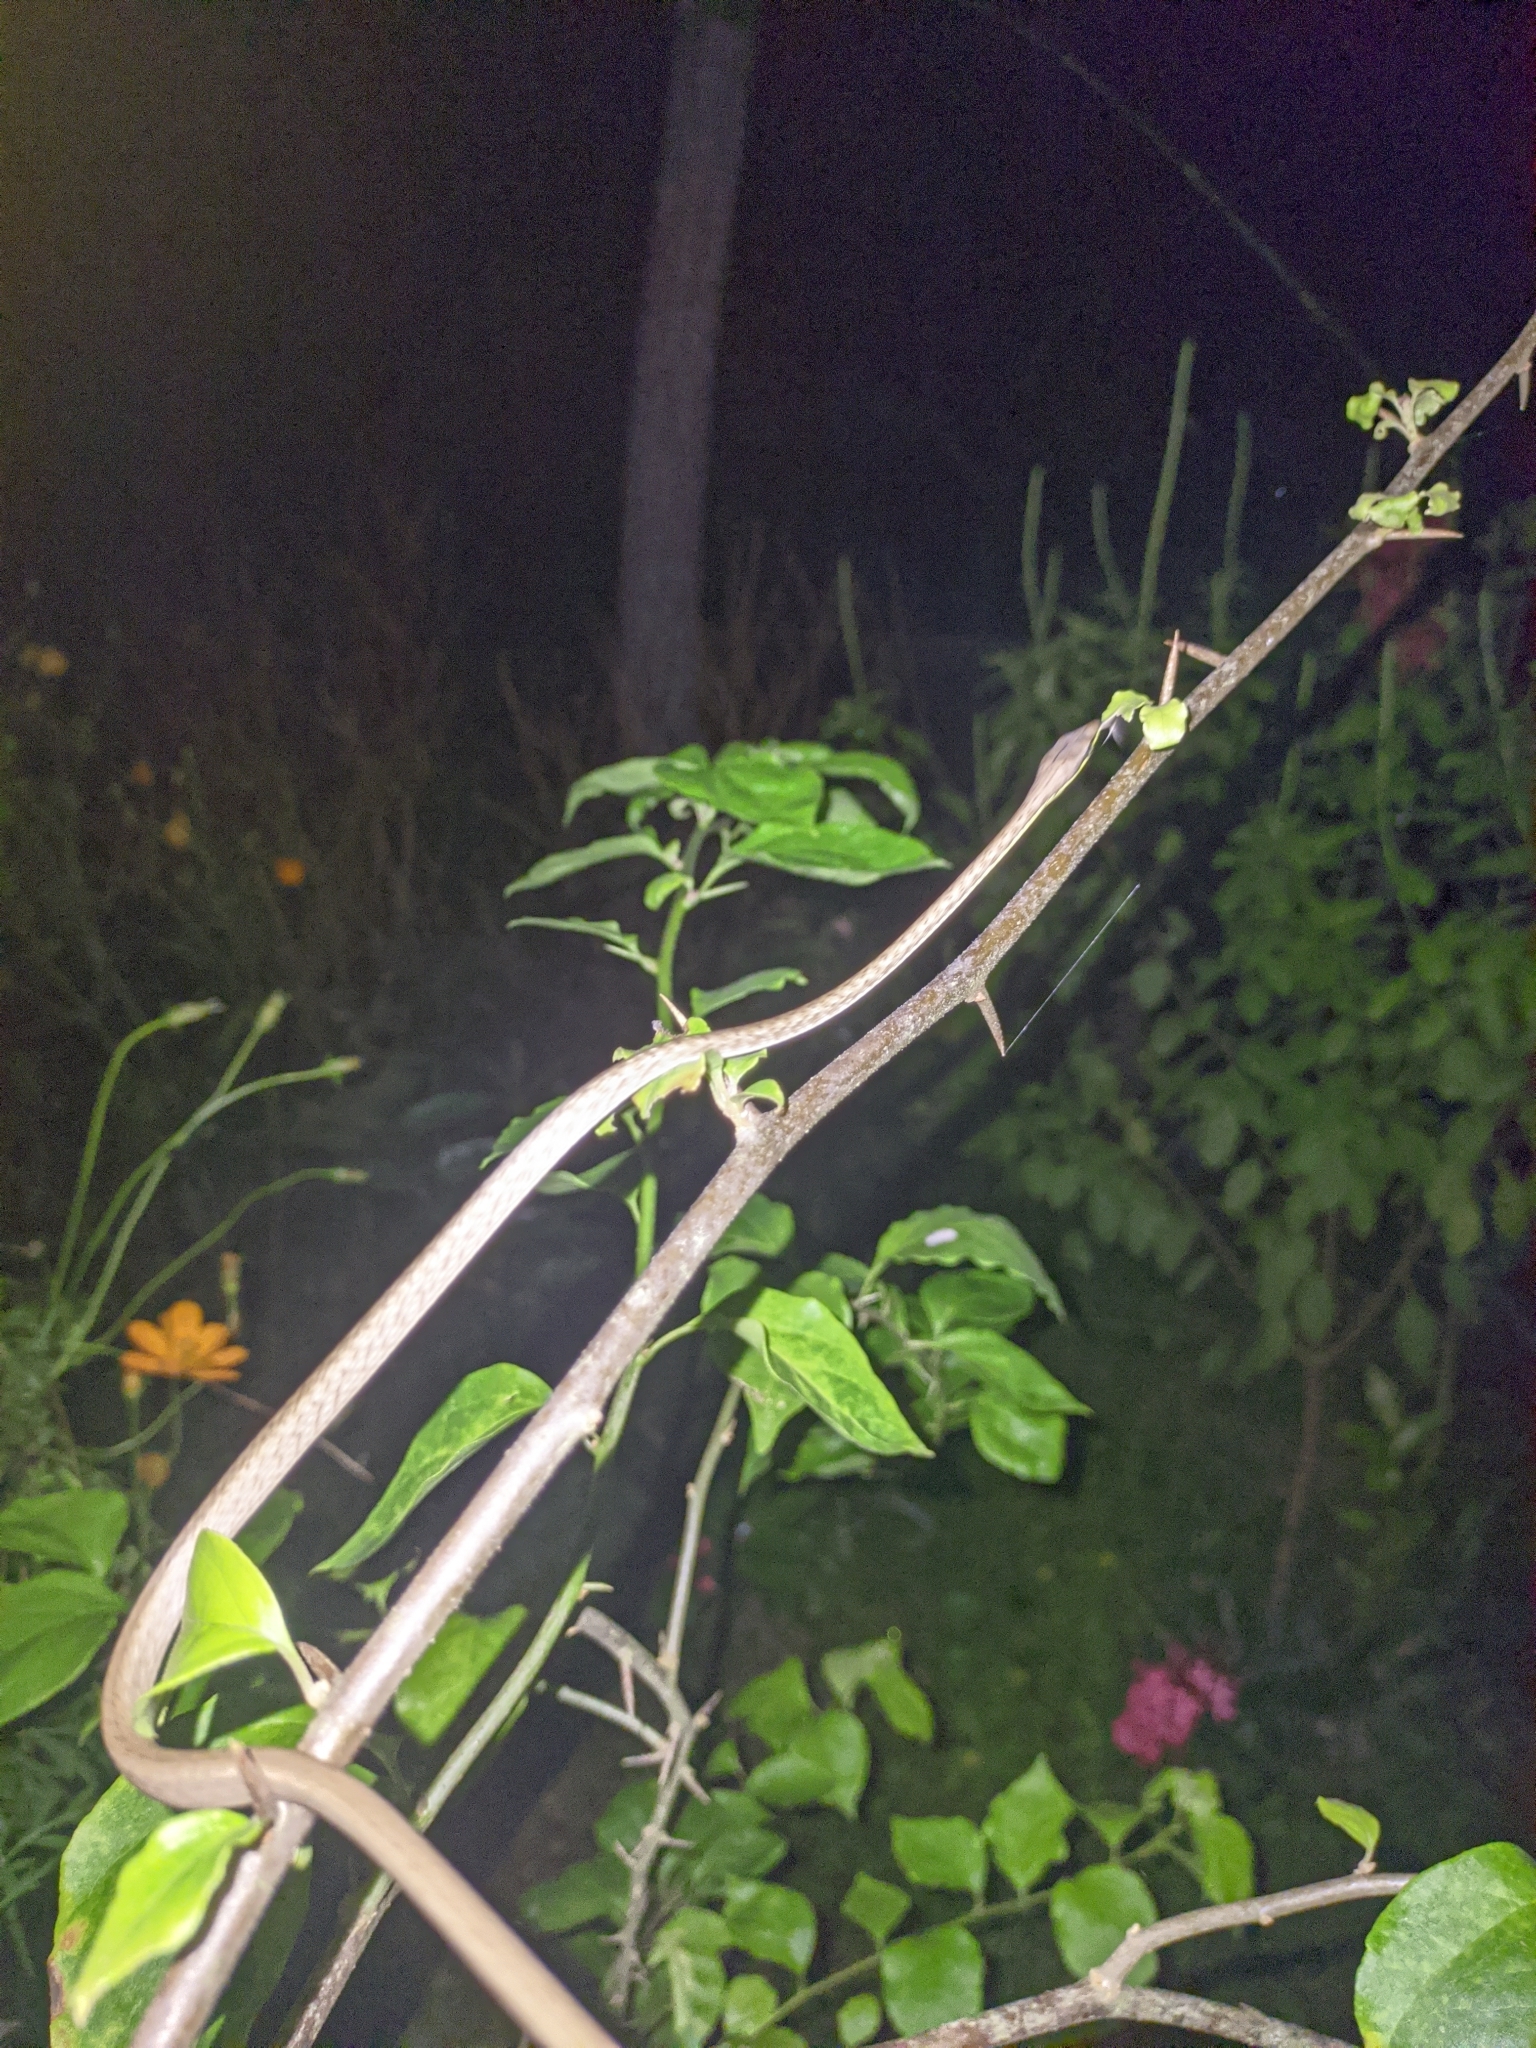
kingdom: Animalia
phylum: Chordata
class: Squamata
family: Colubridae
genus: Oxybelis
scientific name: Oxybelis aeneus
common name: Brown vinesnake
